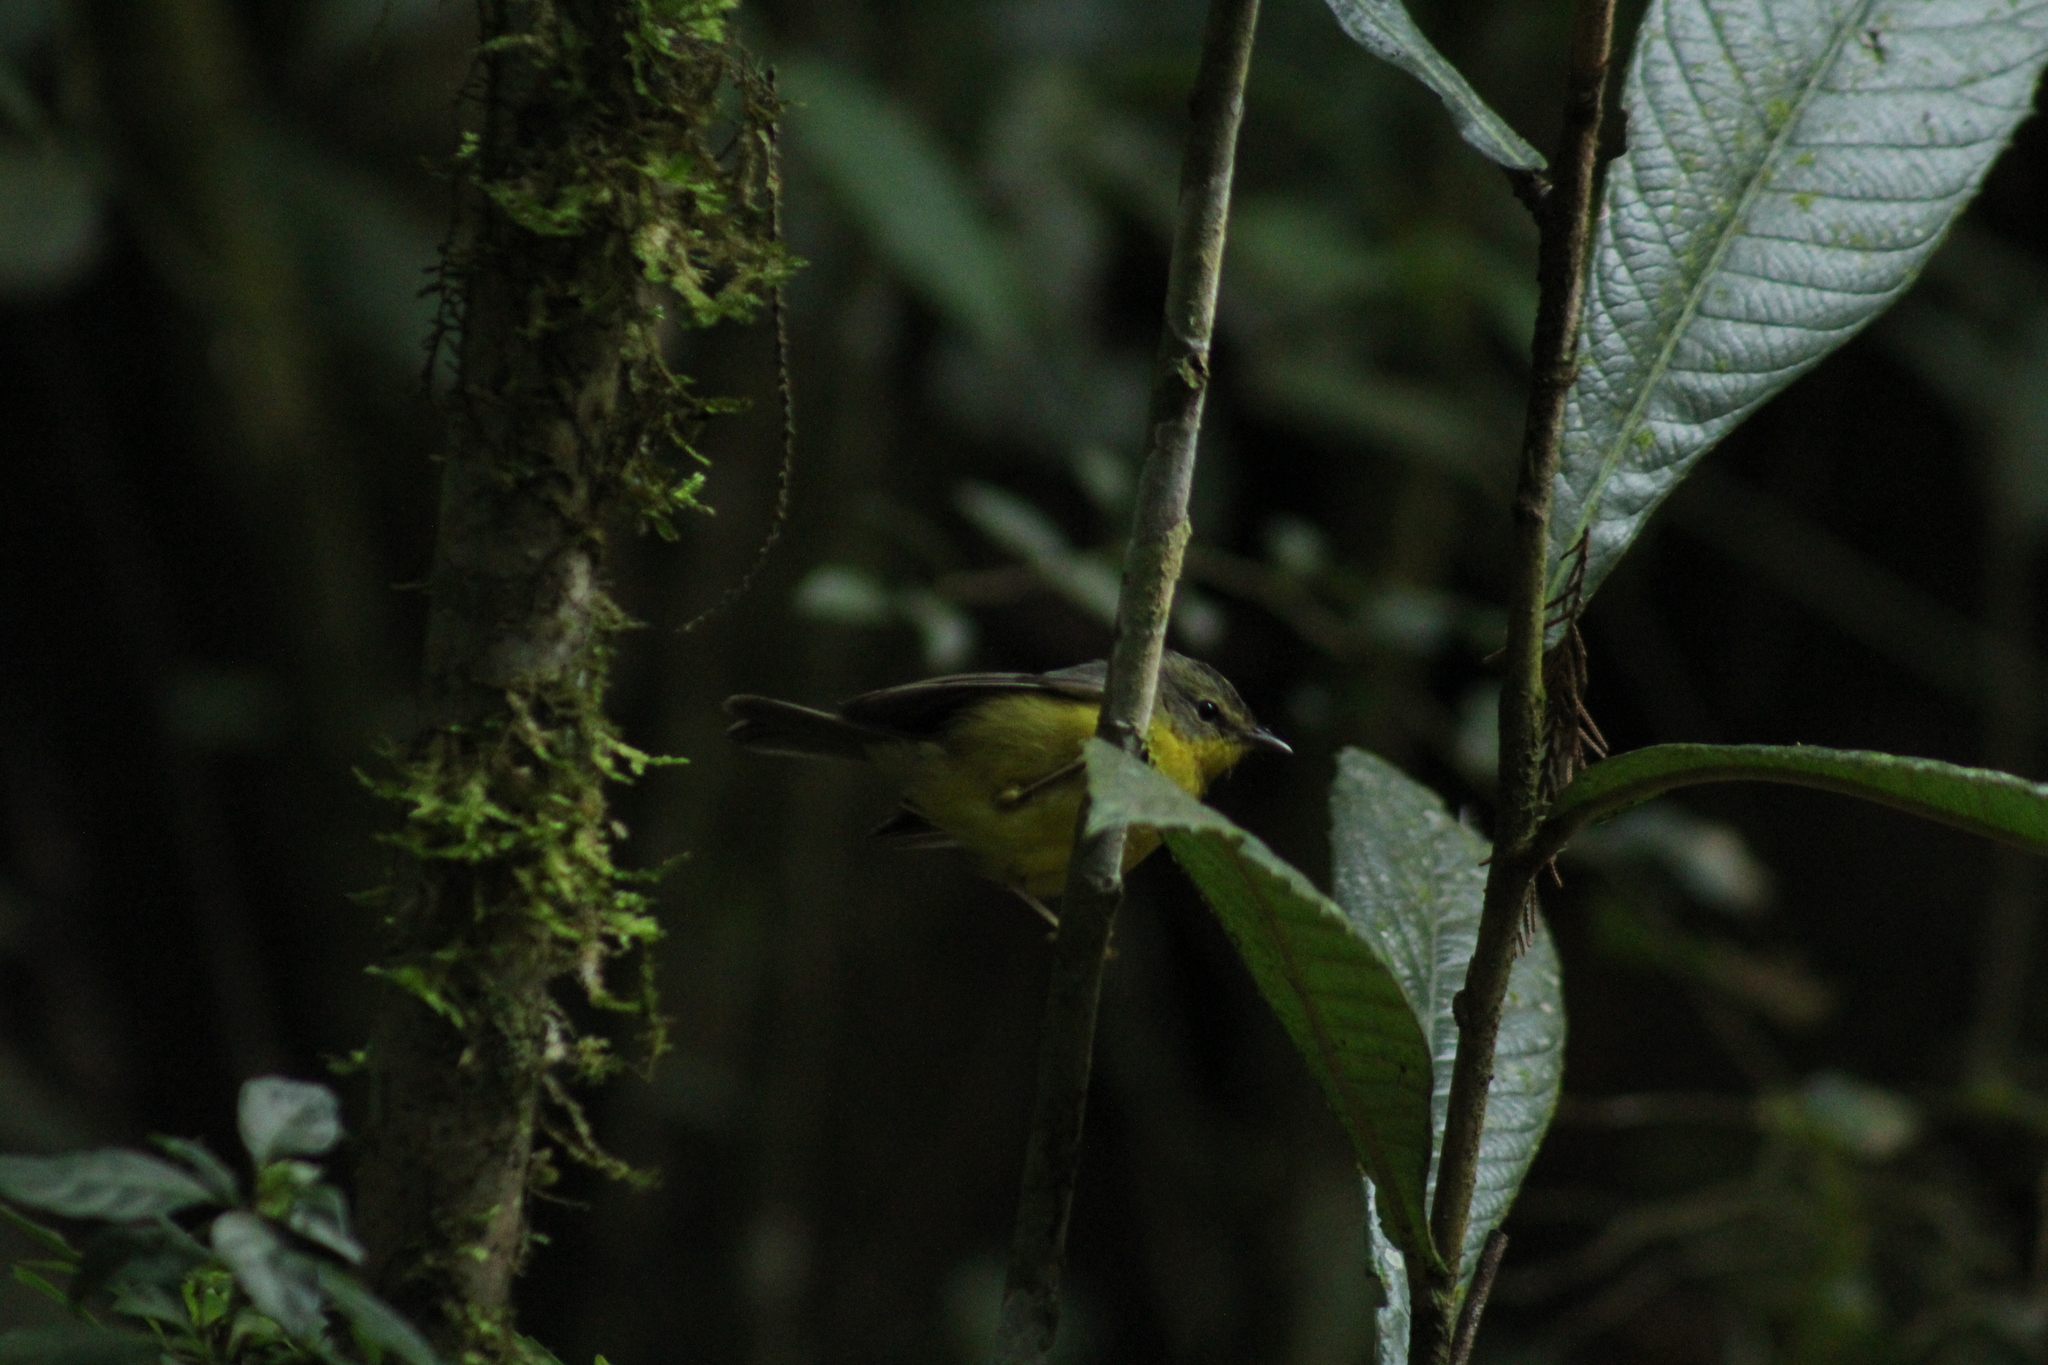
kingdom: Animalia
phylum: Chordata
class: Aves
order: Passeriformes
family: Parulidae
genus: Basileuterus
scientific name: Basileuterus culicivorus
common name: Golden-crowned warbler
